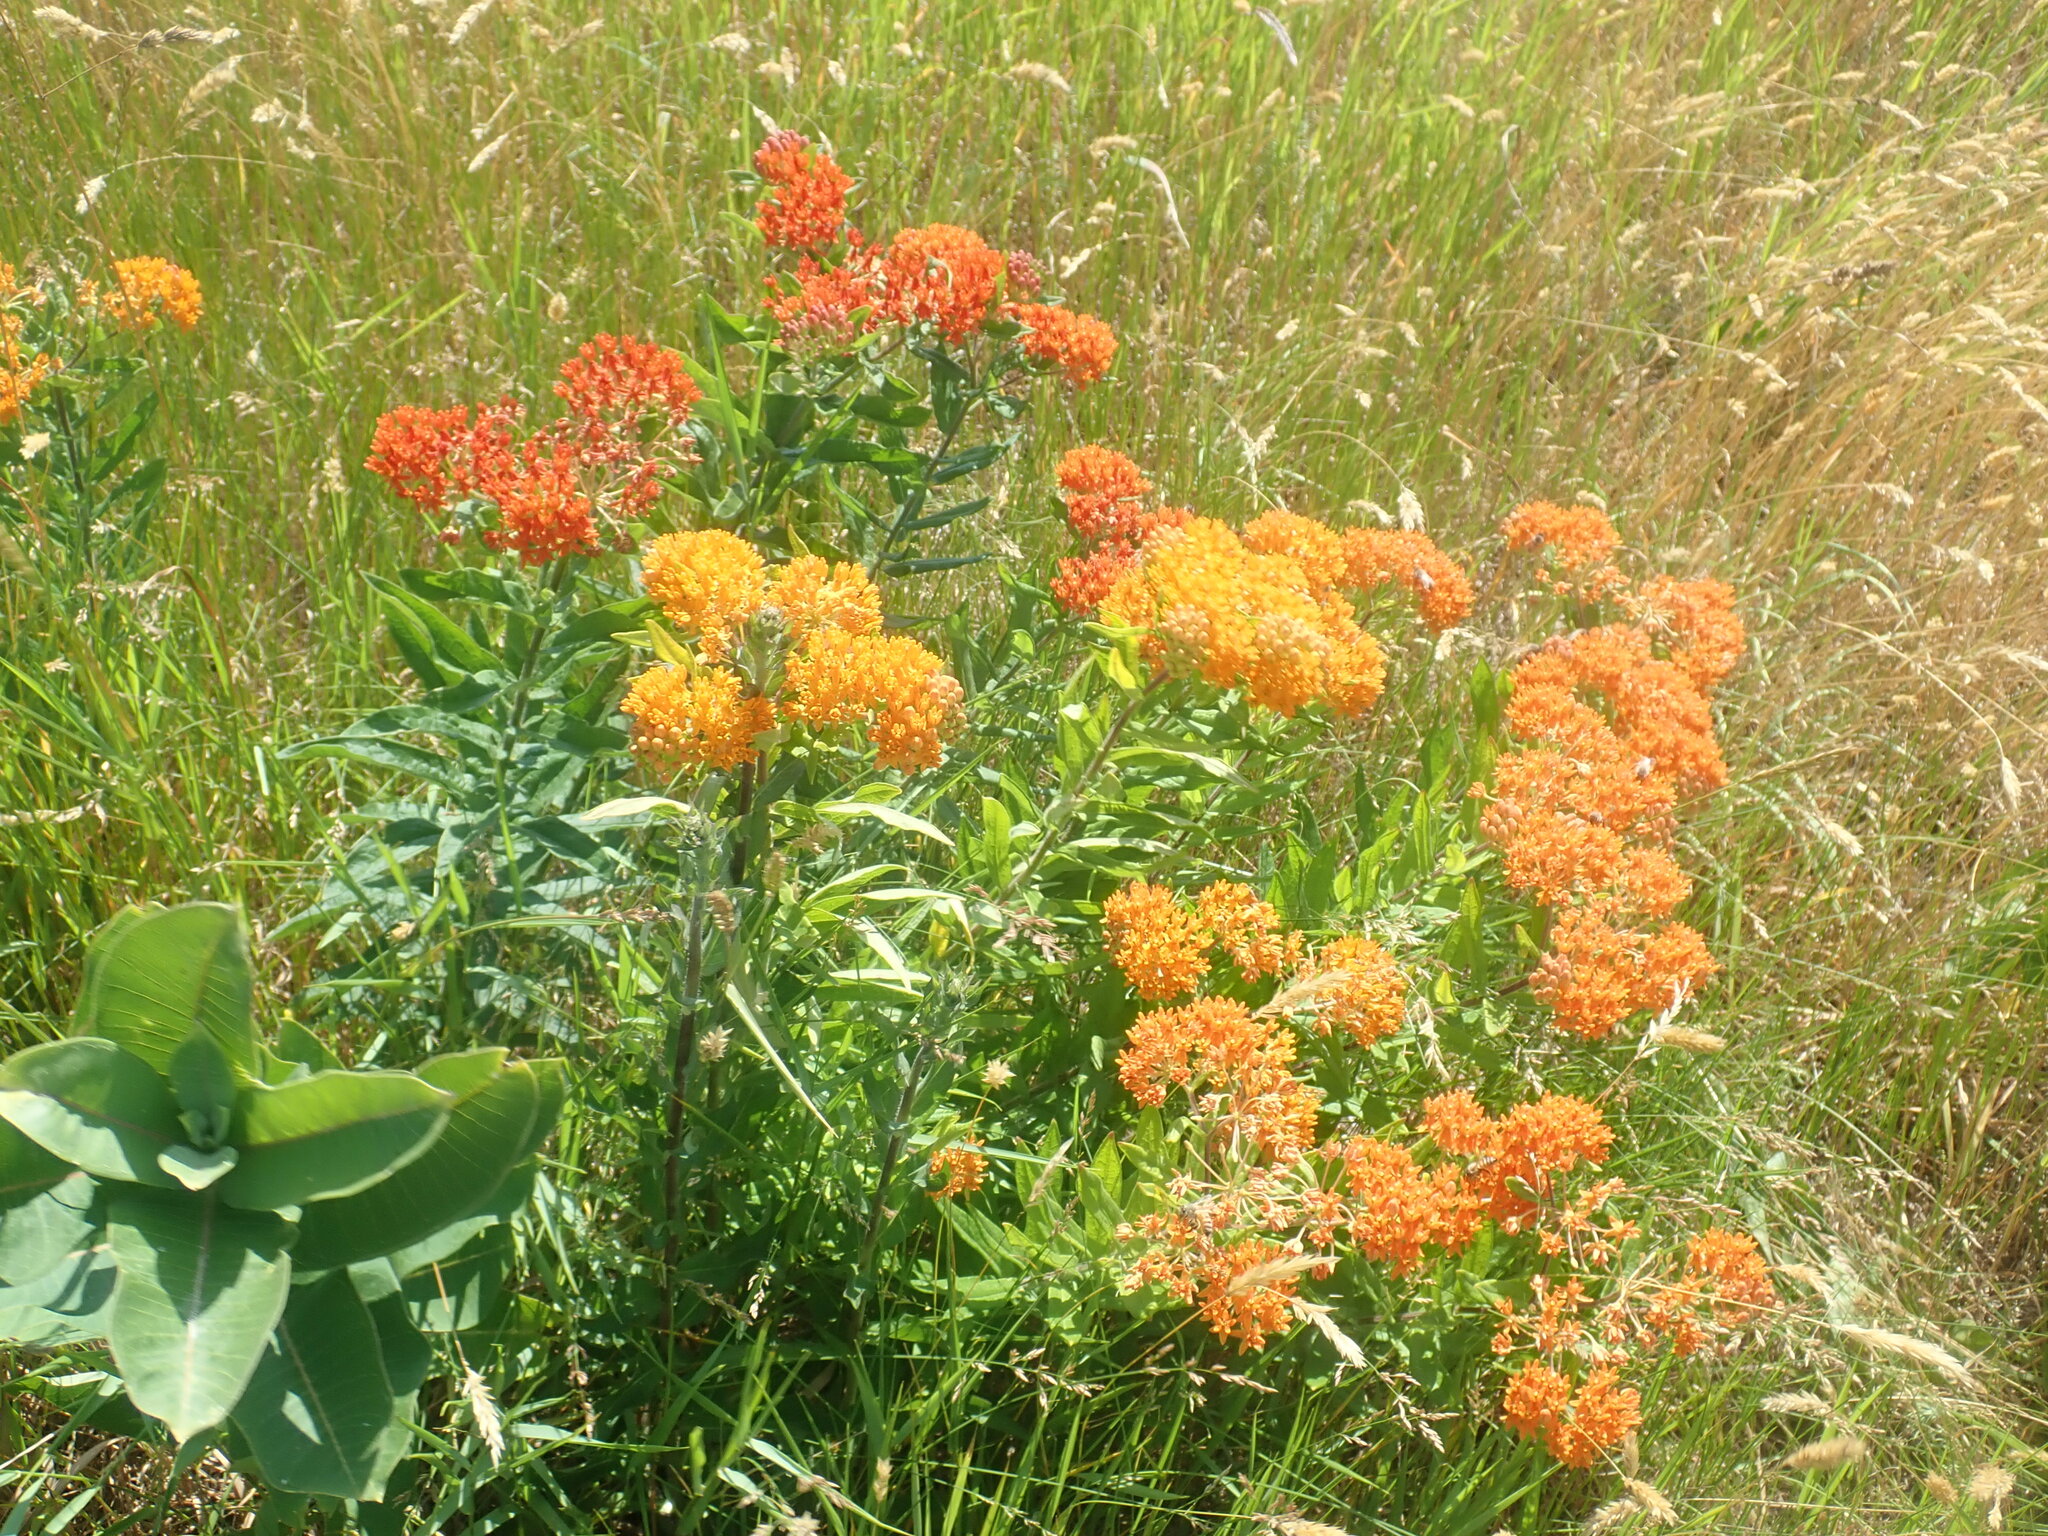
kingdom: Plantae
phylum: Tracheophyta
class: Magnoliopsida
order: Gentianales
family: Apocynaceae
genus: Asclepias
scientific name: Asclepias tuberosa
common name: Butterfly milkweed
